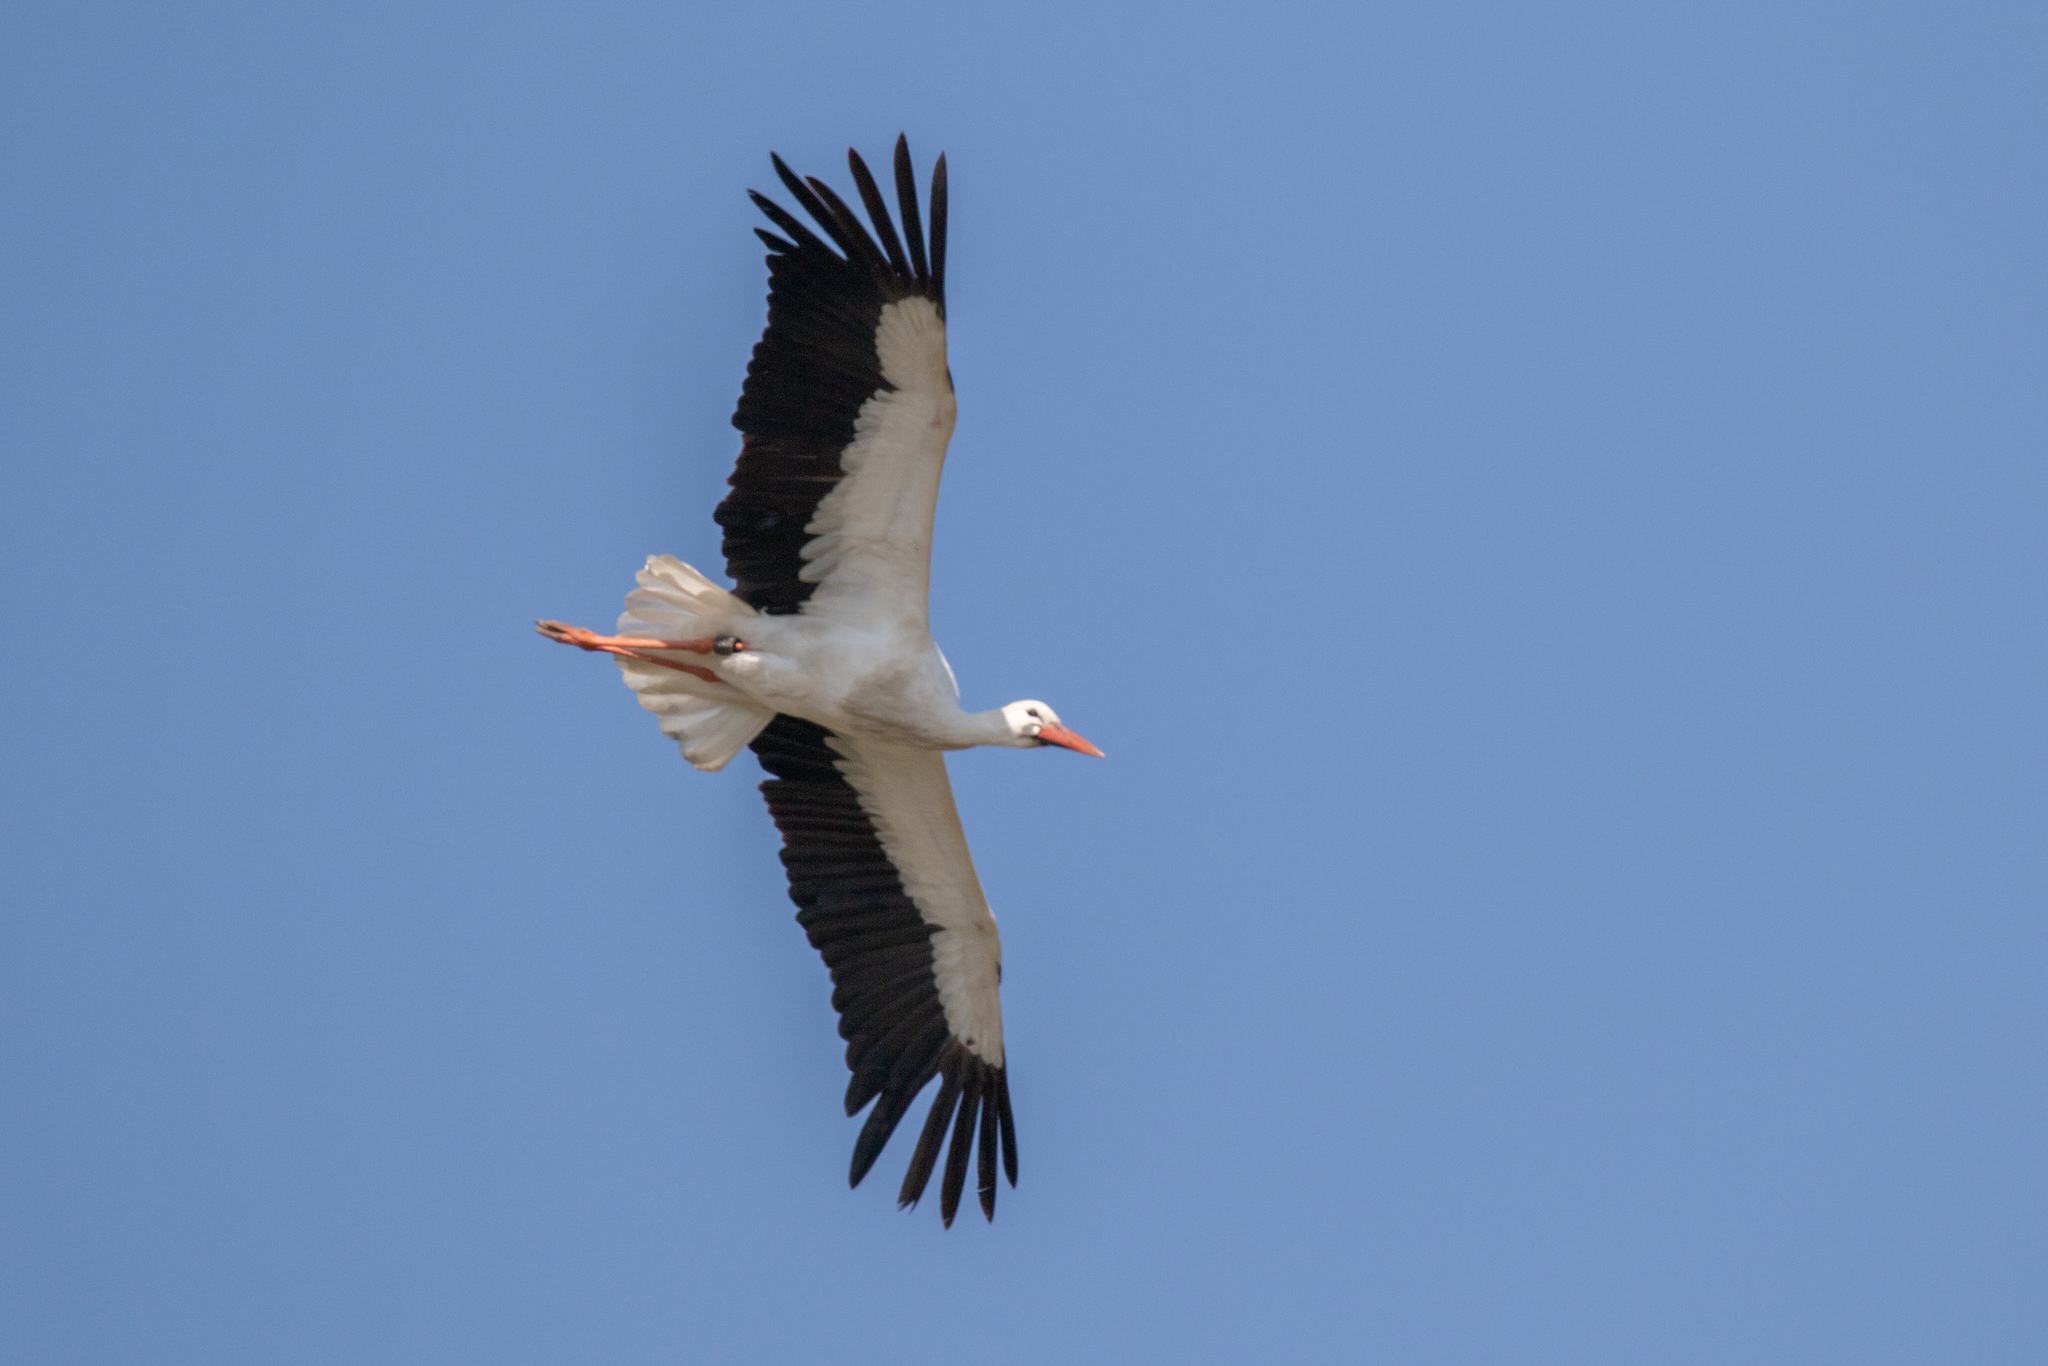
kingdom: Animalia
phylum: Chordata
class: Aves
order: Ciconiiformes
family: Ciconiidae
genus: Ciconia
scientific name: Ciconia ciconia
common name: White stork
